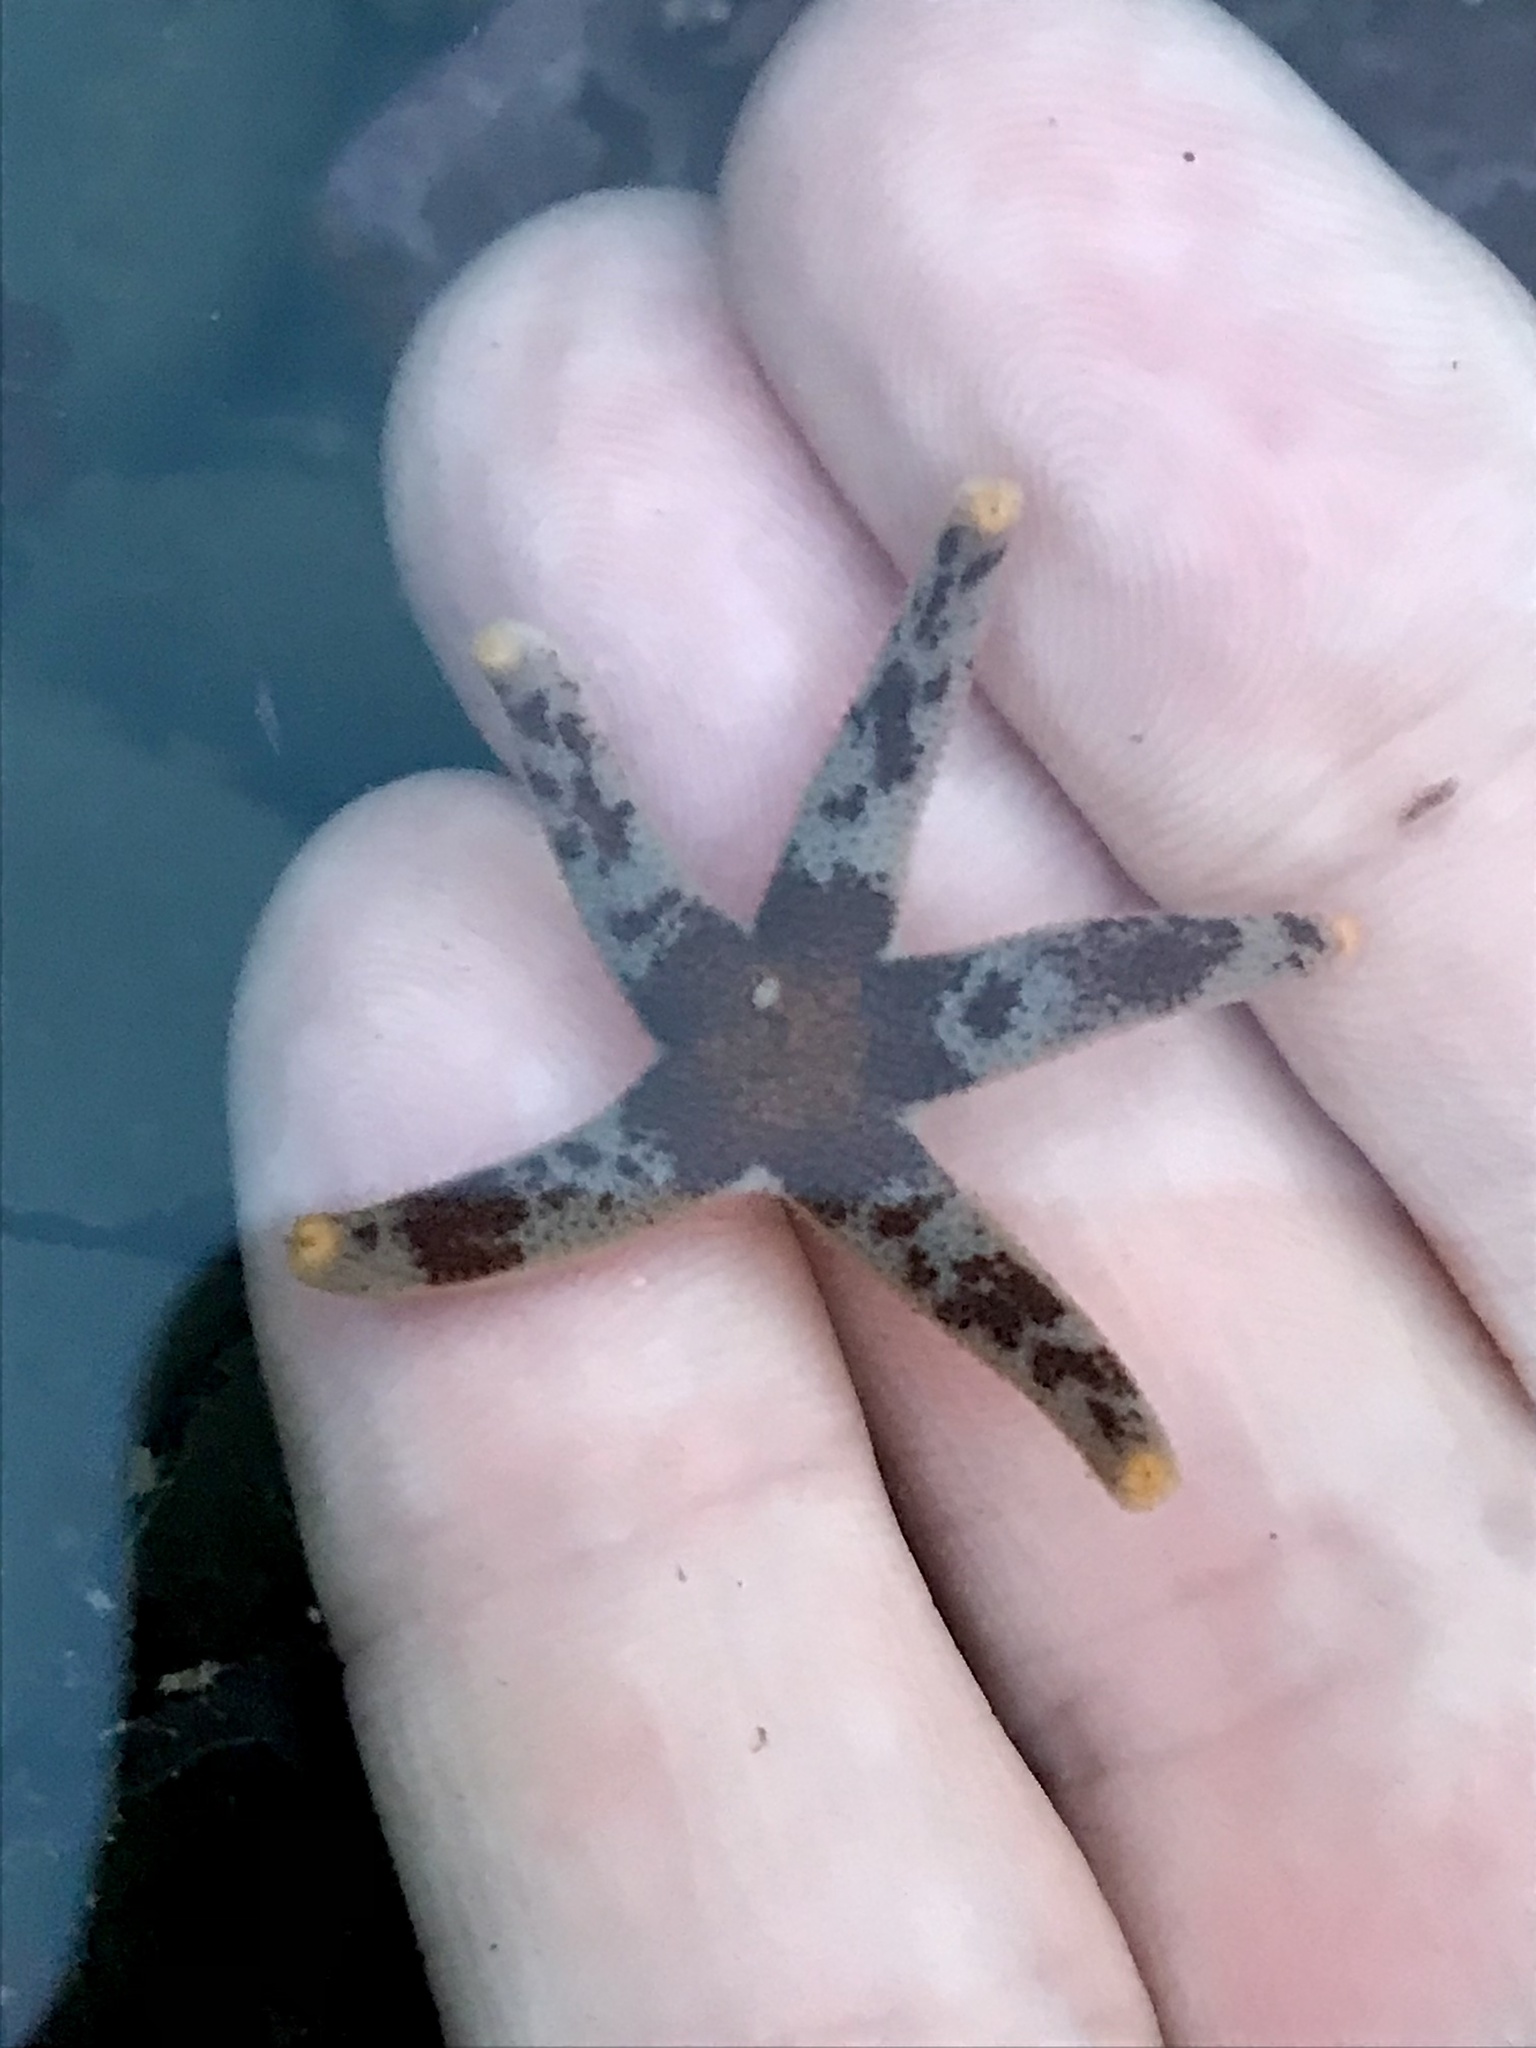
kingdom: Animalia
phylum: Echinodermata
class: Asteroidea
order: Spinulosida
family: Echinasteridae
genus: Henricia
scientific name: Henricia pumila
